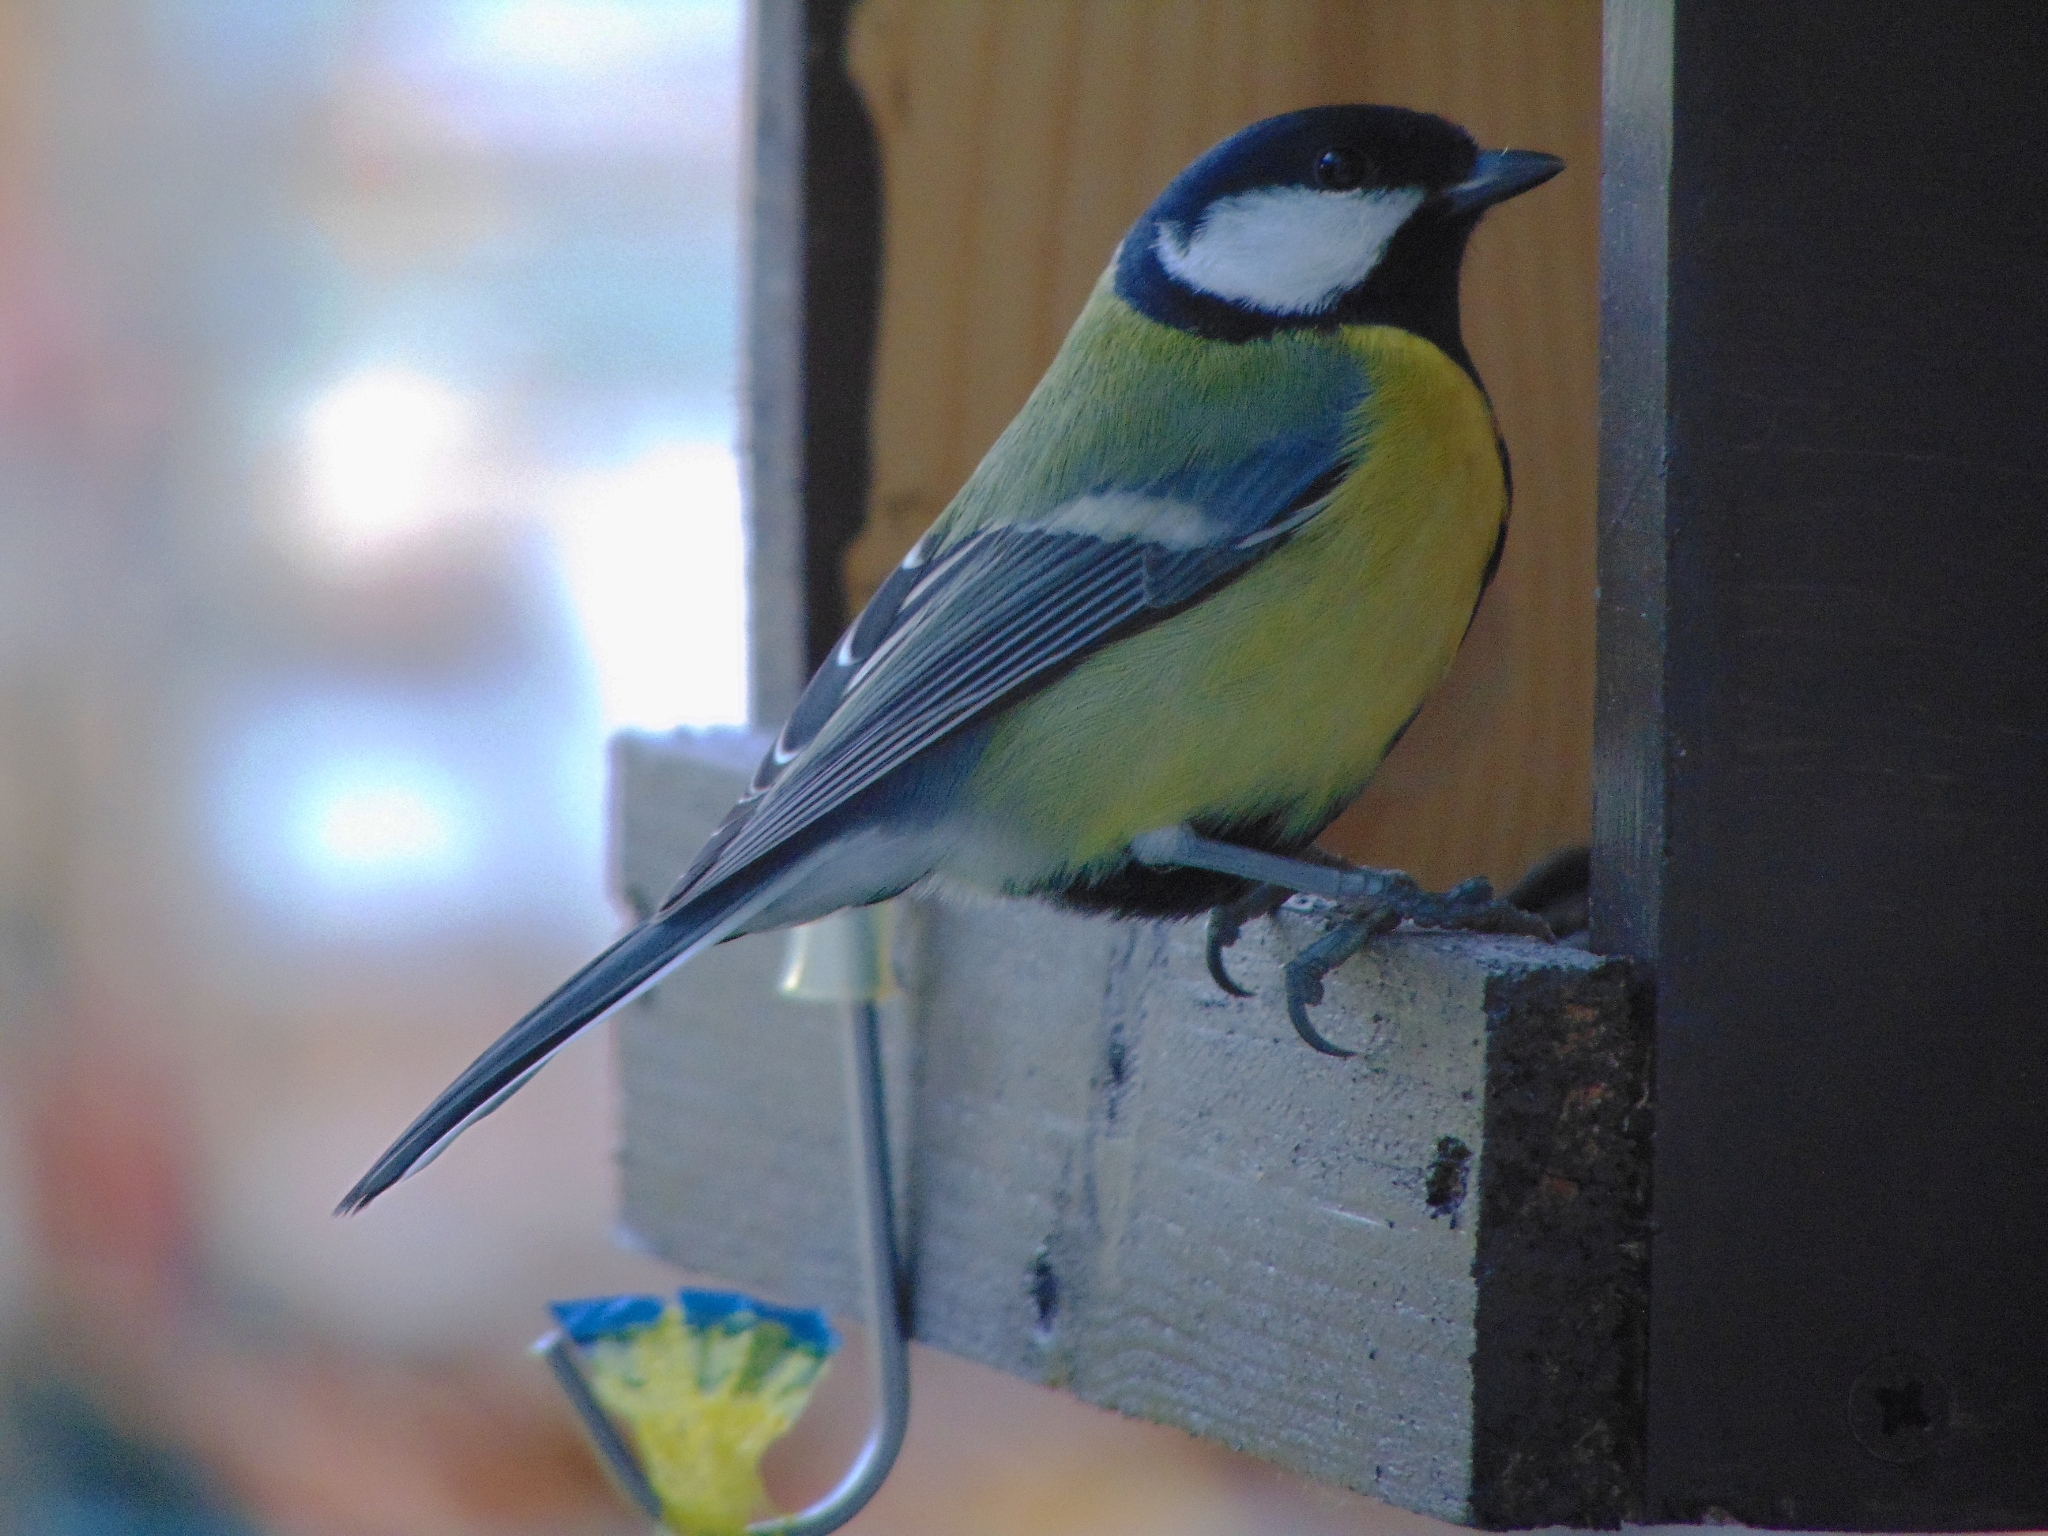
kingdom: Animalia
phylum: Chordata
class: Aves
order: Passeriformes
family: Paridae
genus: Parus
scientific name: Parus major
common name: Great tit
